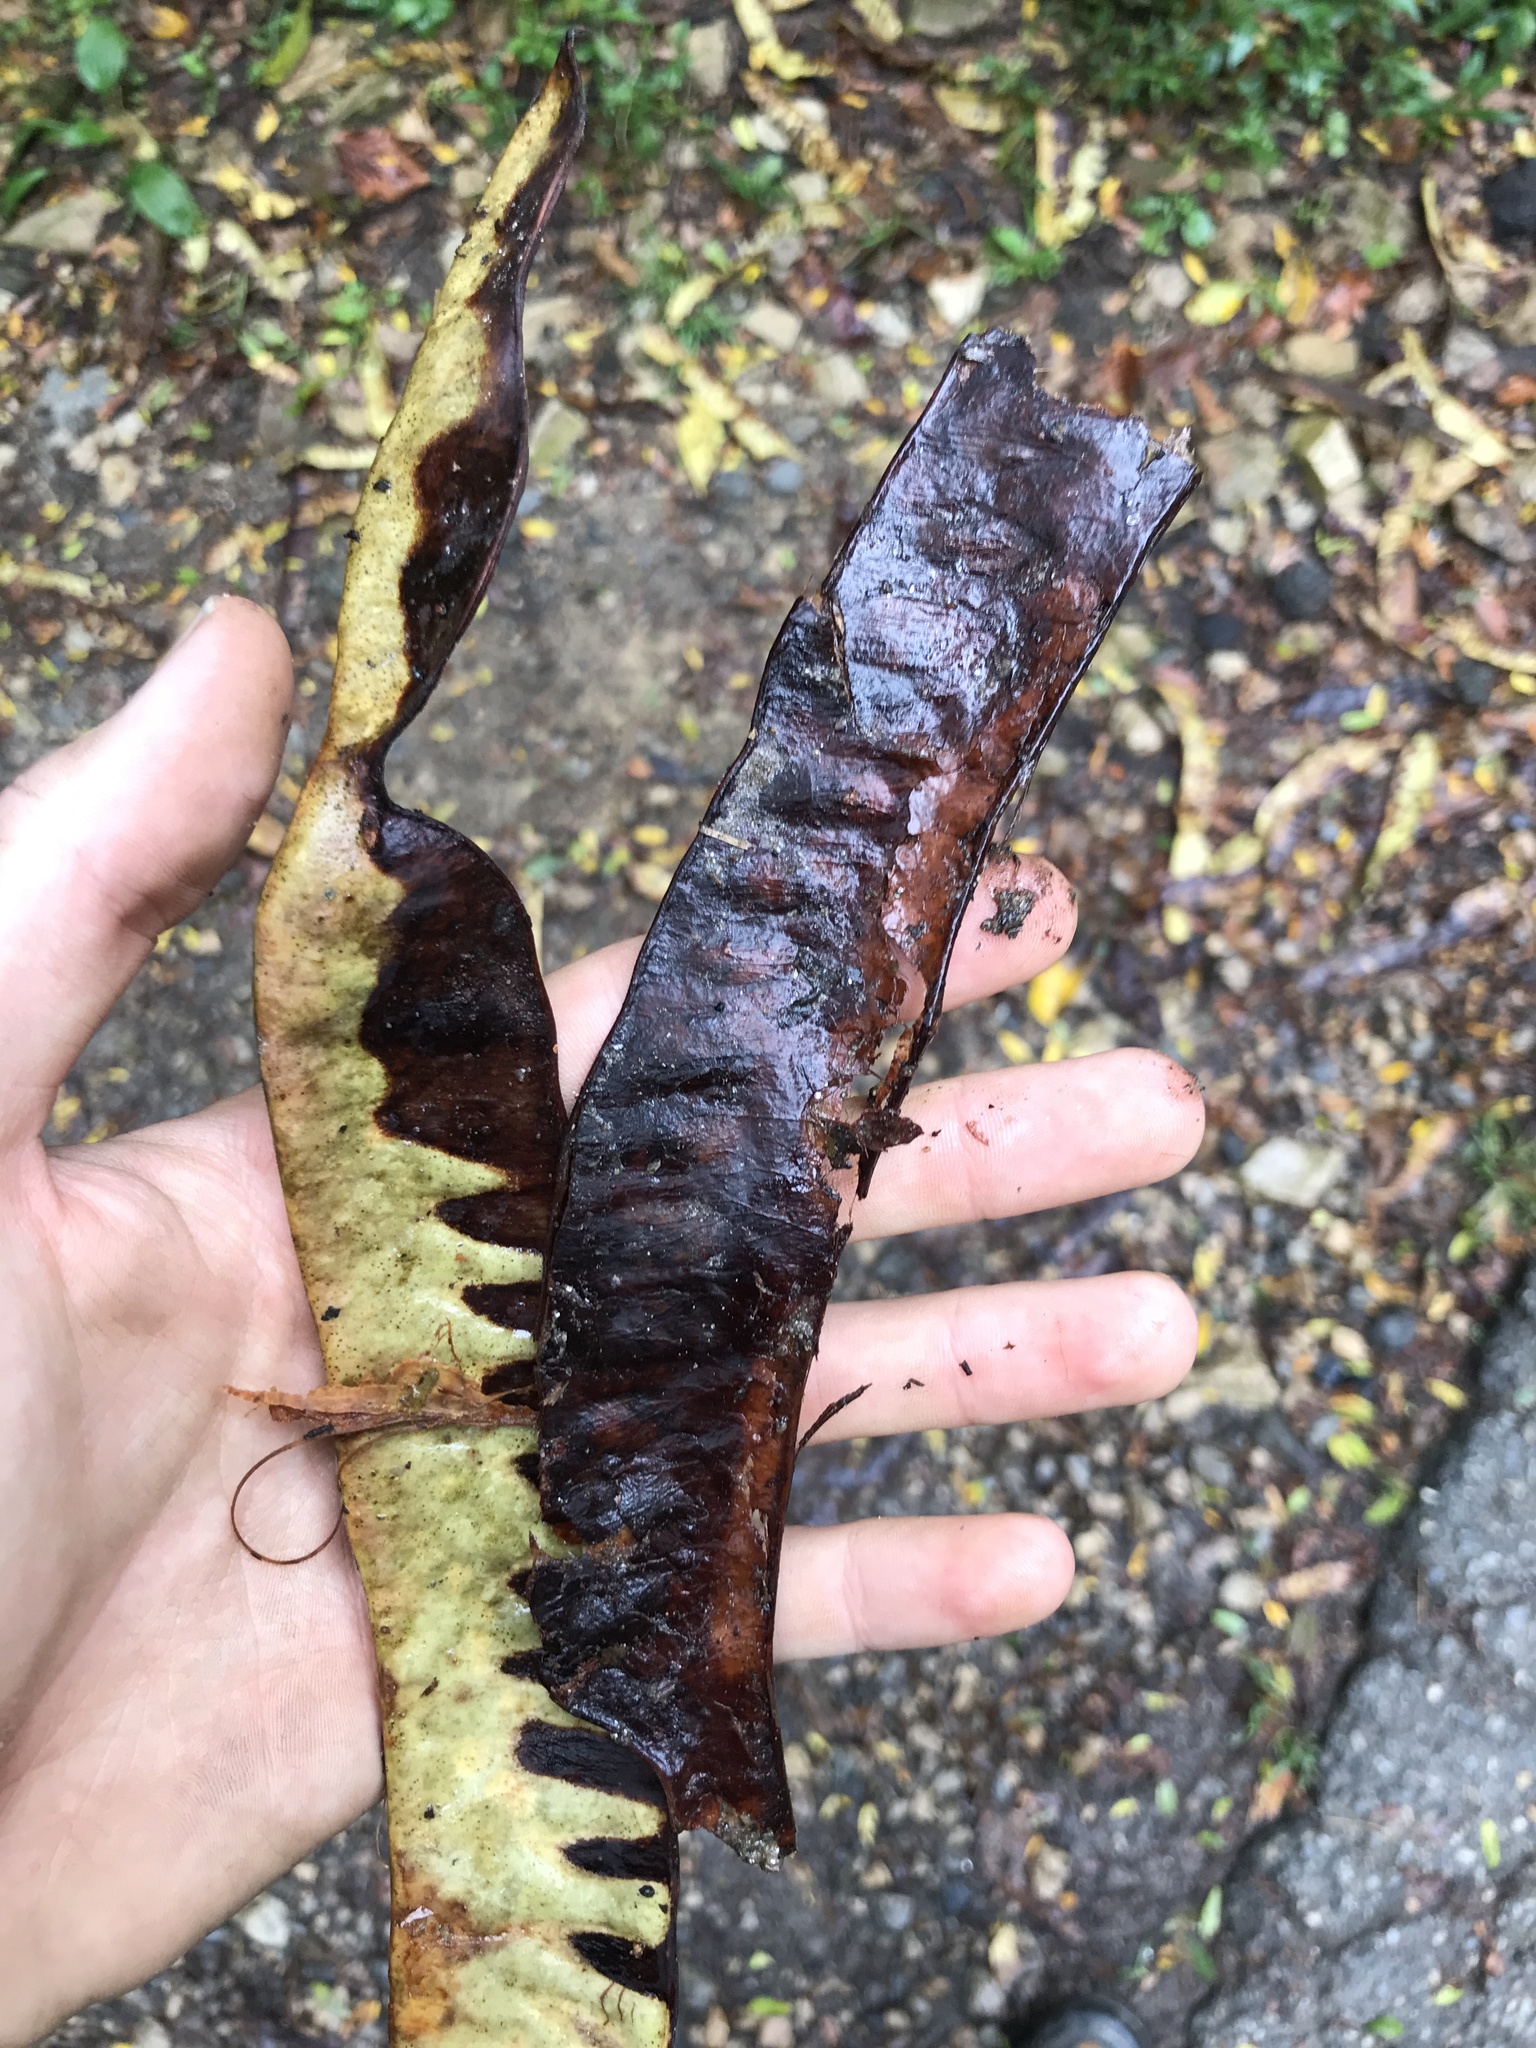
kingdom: Plantae
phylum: Tracheophyta
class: Magnoliopsida
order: Fabales
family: Fabaceae
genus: Gleditsia
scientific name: Gleditsia triacanthos
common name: Common honeylocust
